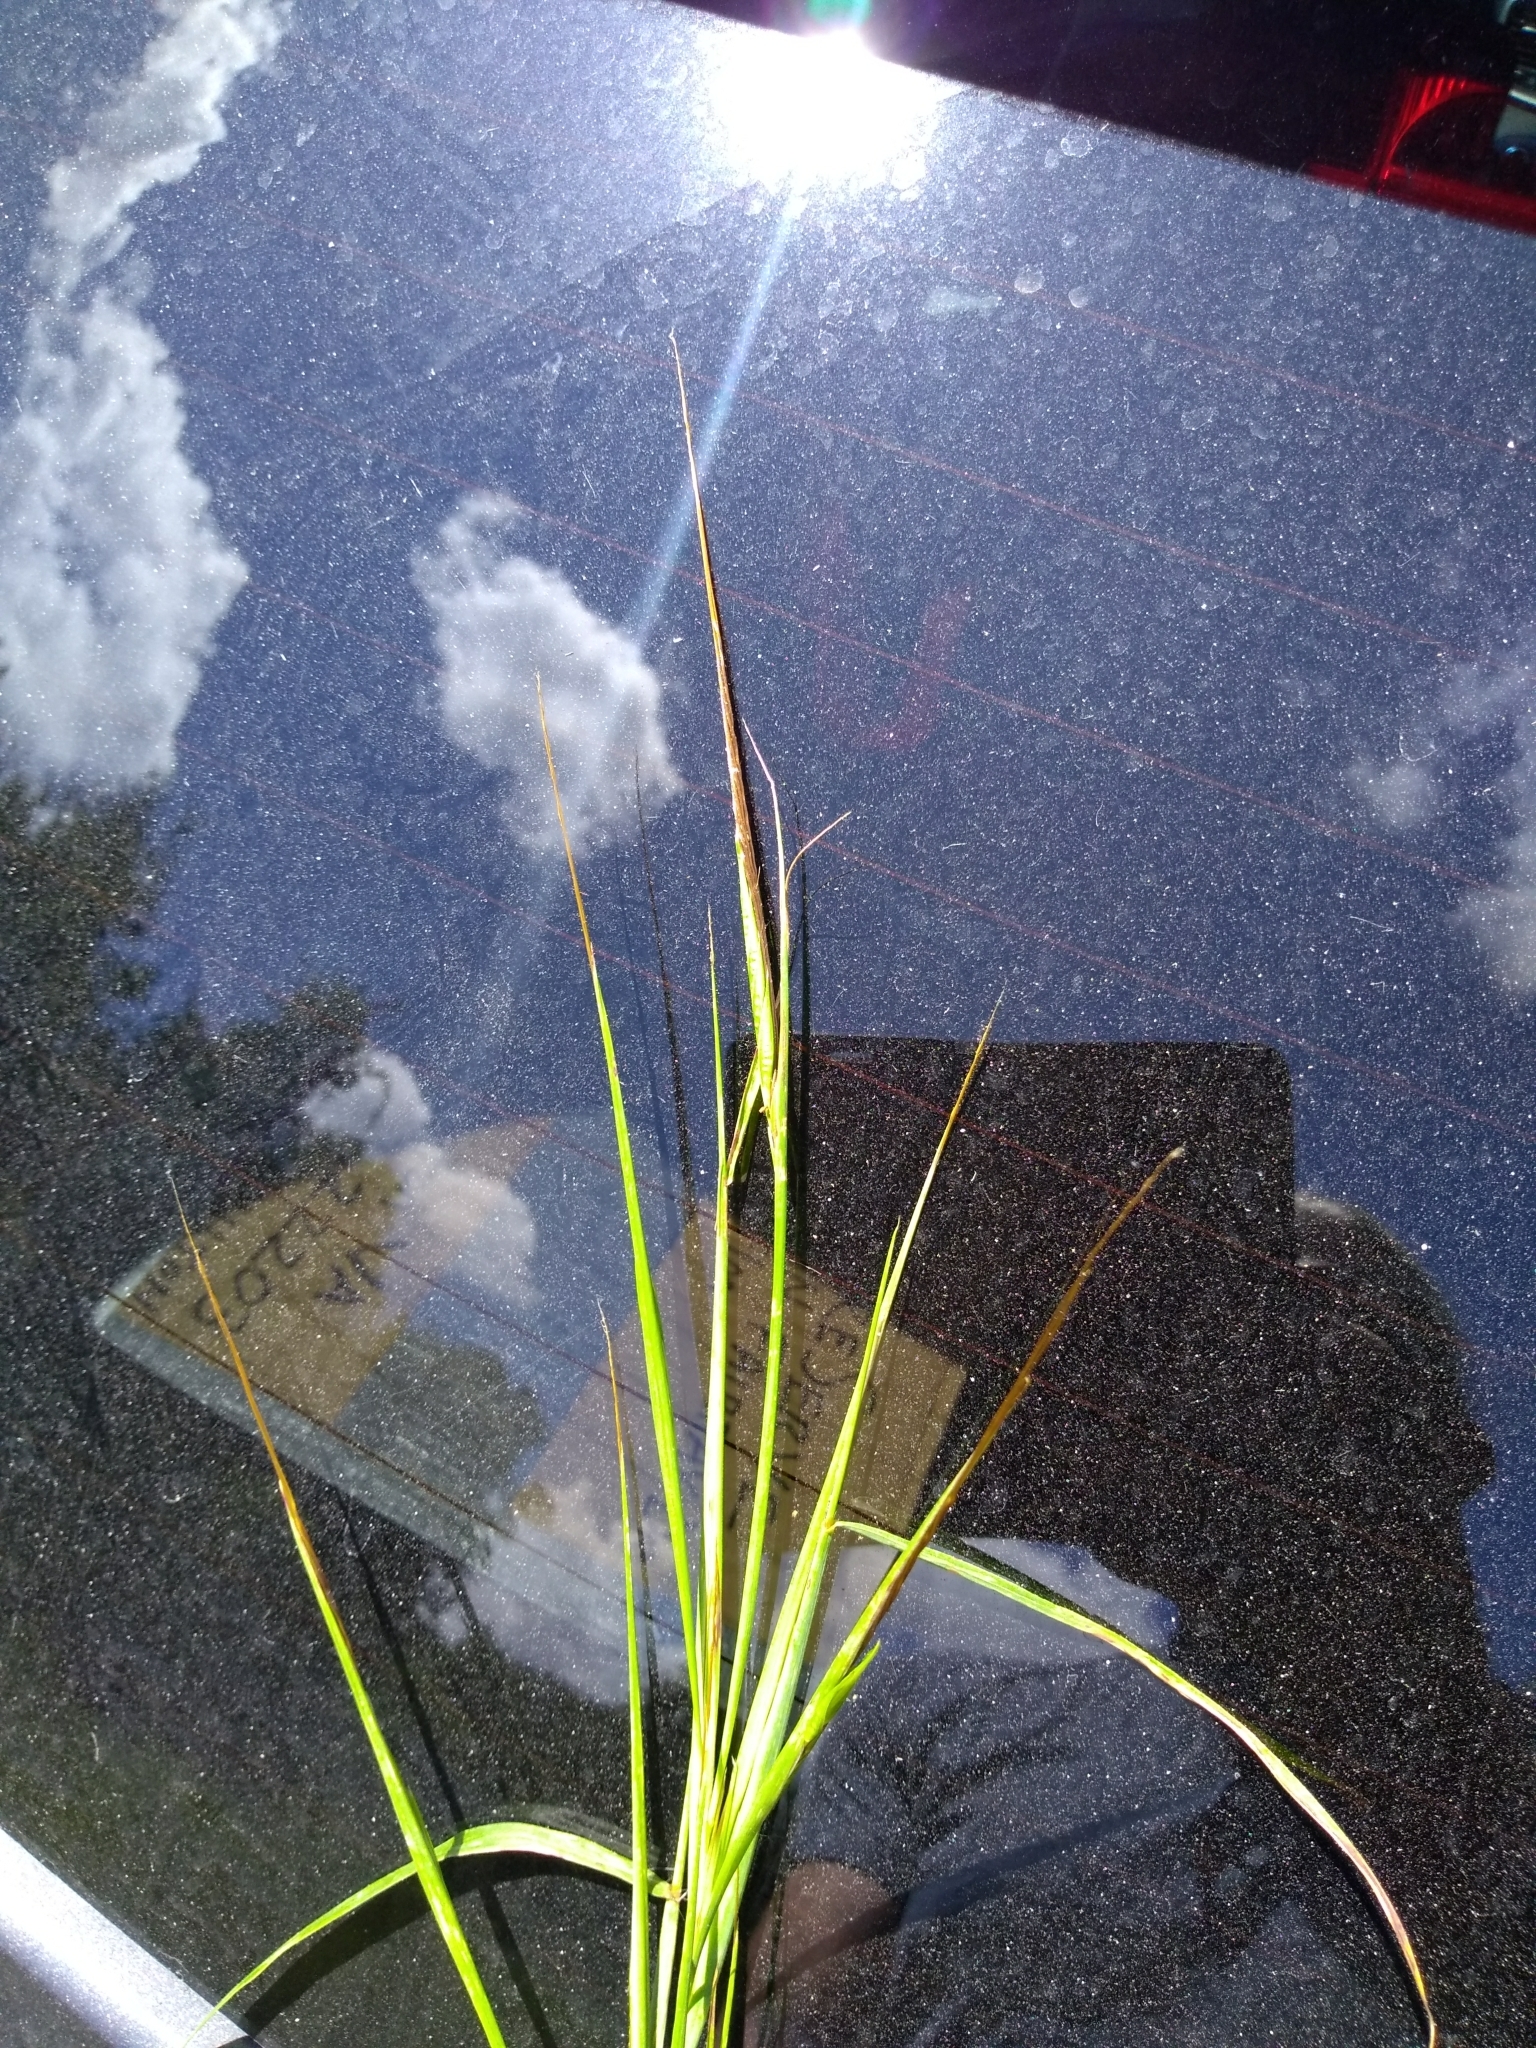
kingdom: Plantae
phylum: Tracheophyta
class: Liliopsida
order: Poales
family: Poaceae
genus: Heteropogon
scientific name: Heteropogon melanocarpus
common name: Sweet tanglehead
